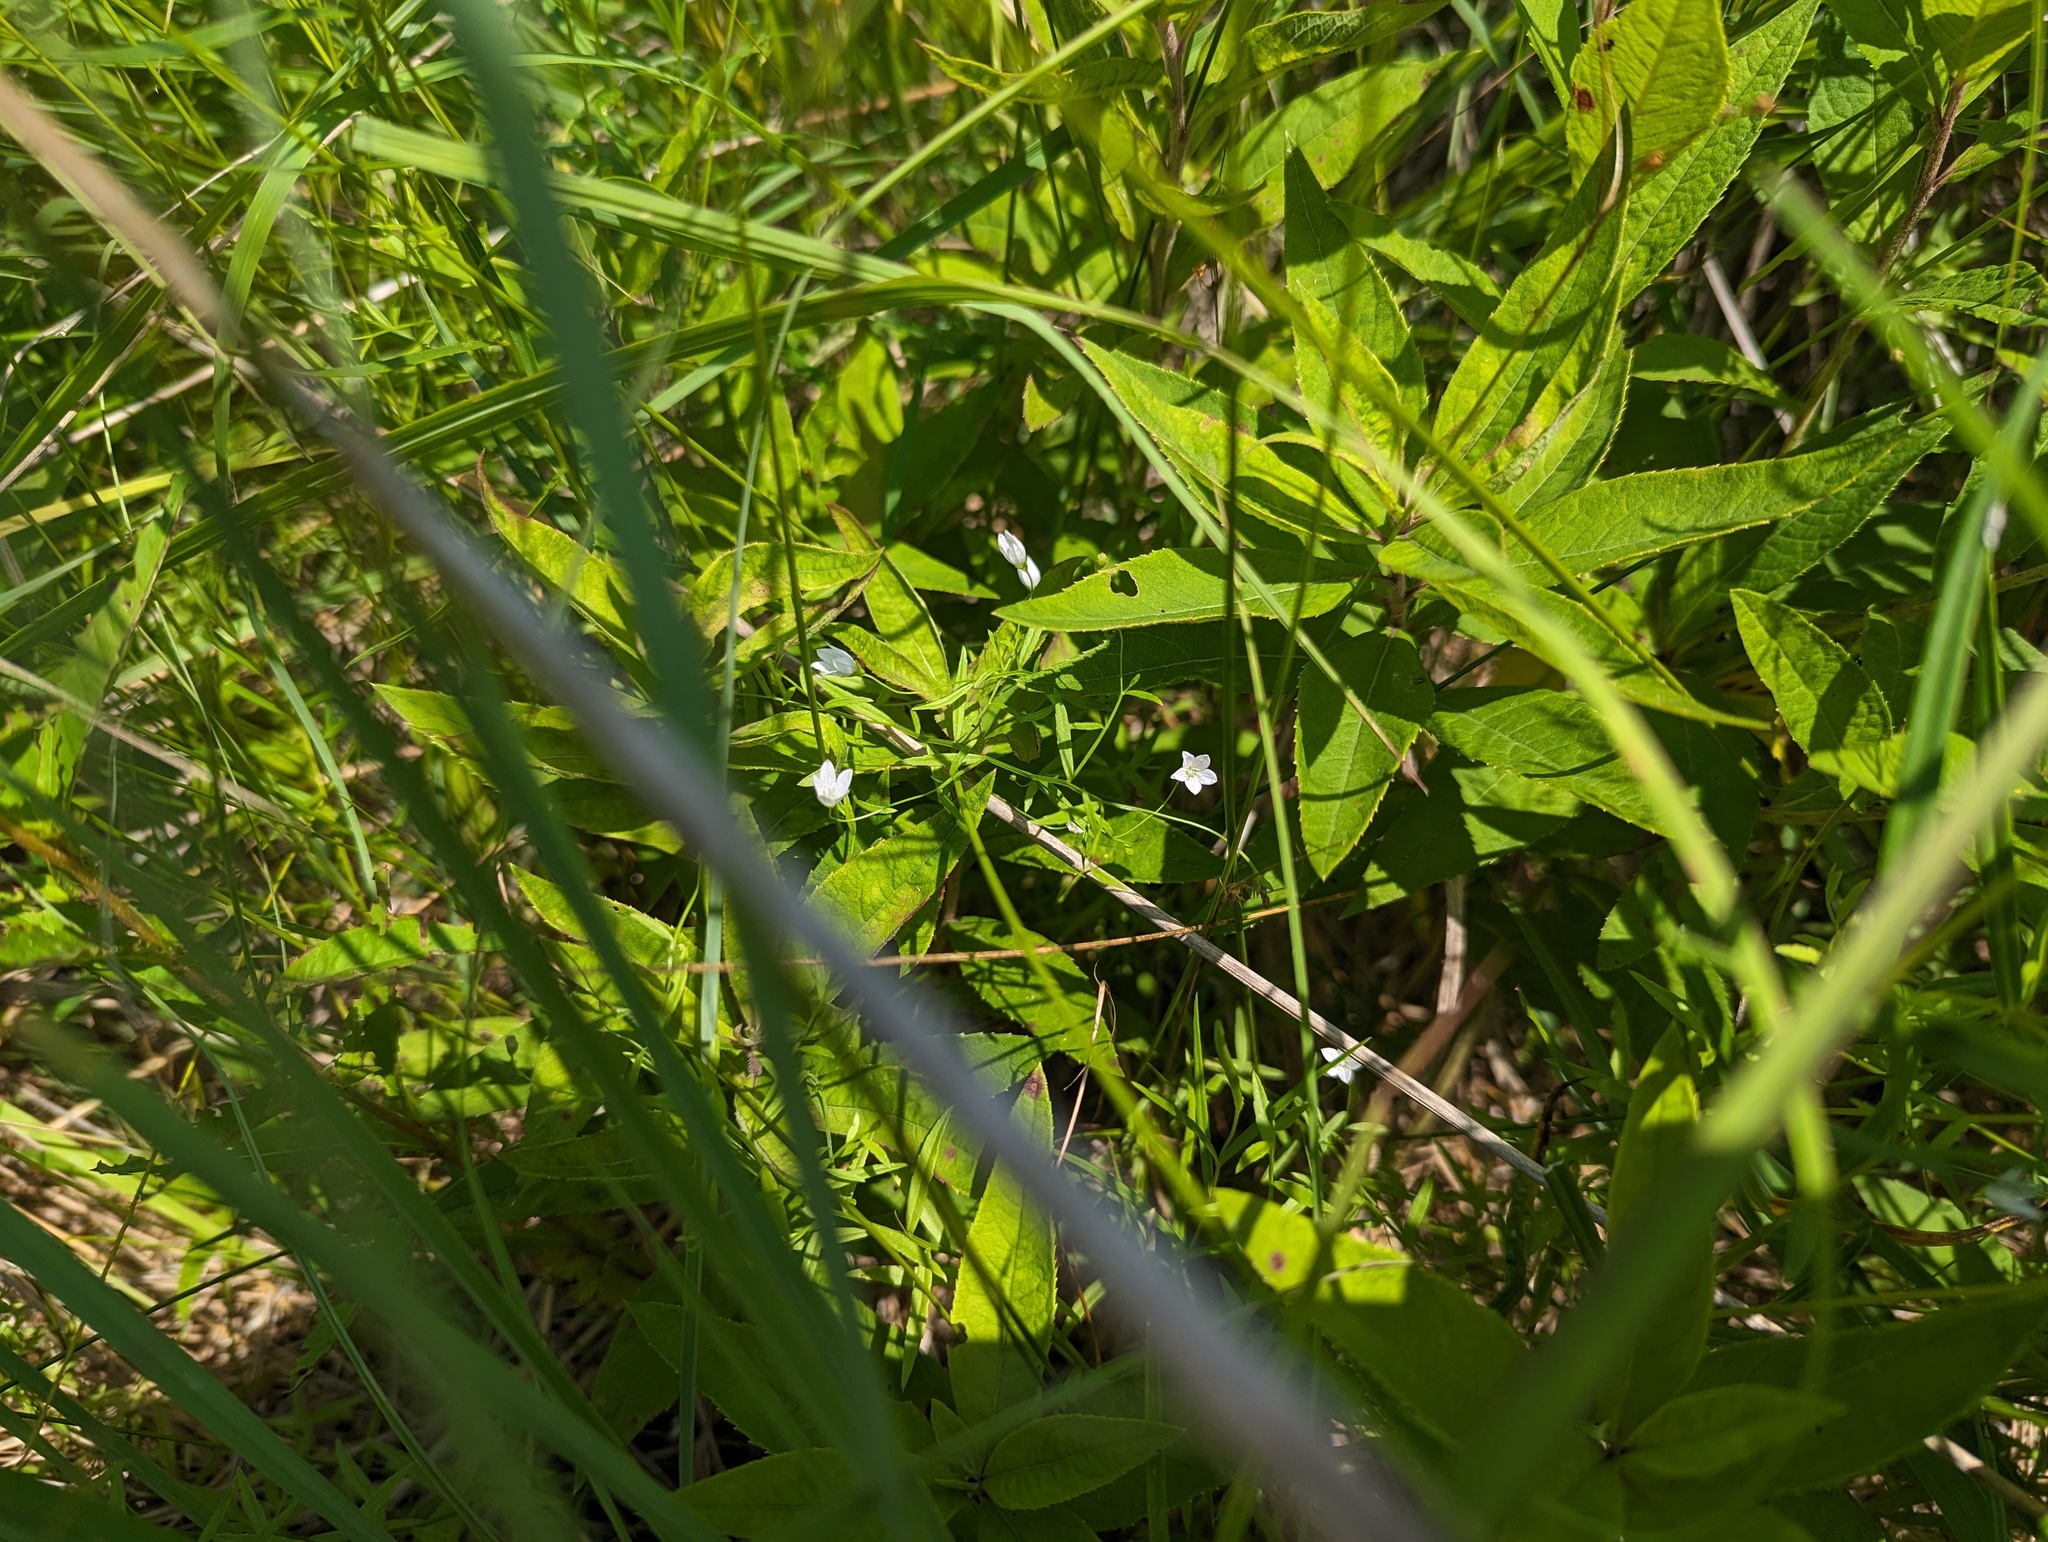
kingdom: Plantae
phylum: Tracheophyta
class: Magnoliopsida
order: Asterales
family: Campanulaceae
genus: Palustricodon
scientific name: Palustricodon aparinoides
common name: Bedstraw bellflower
